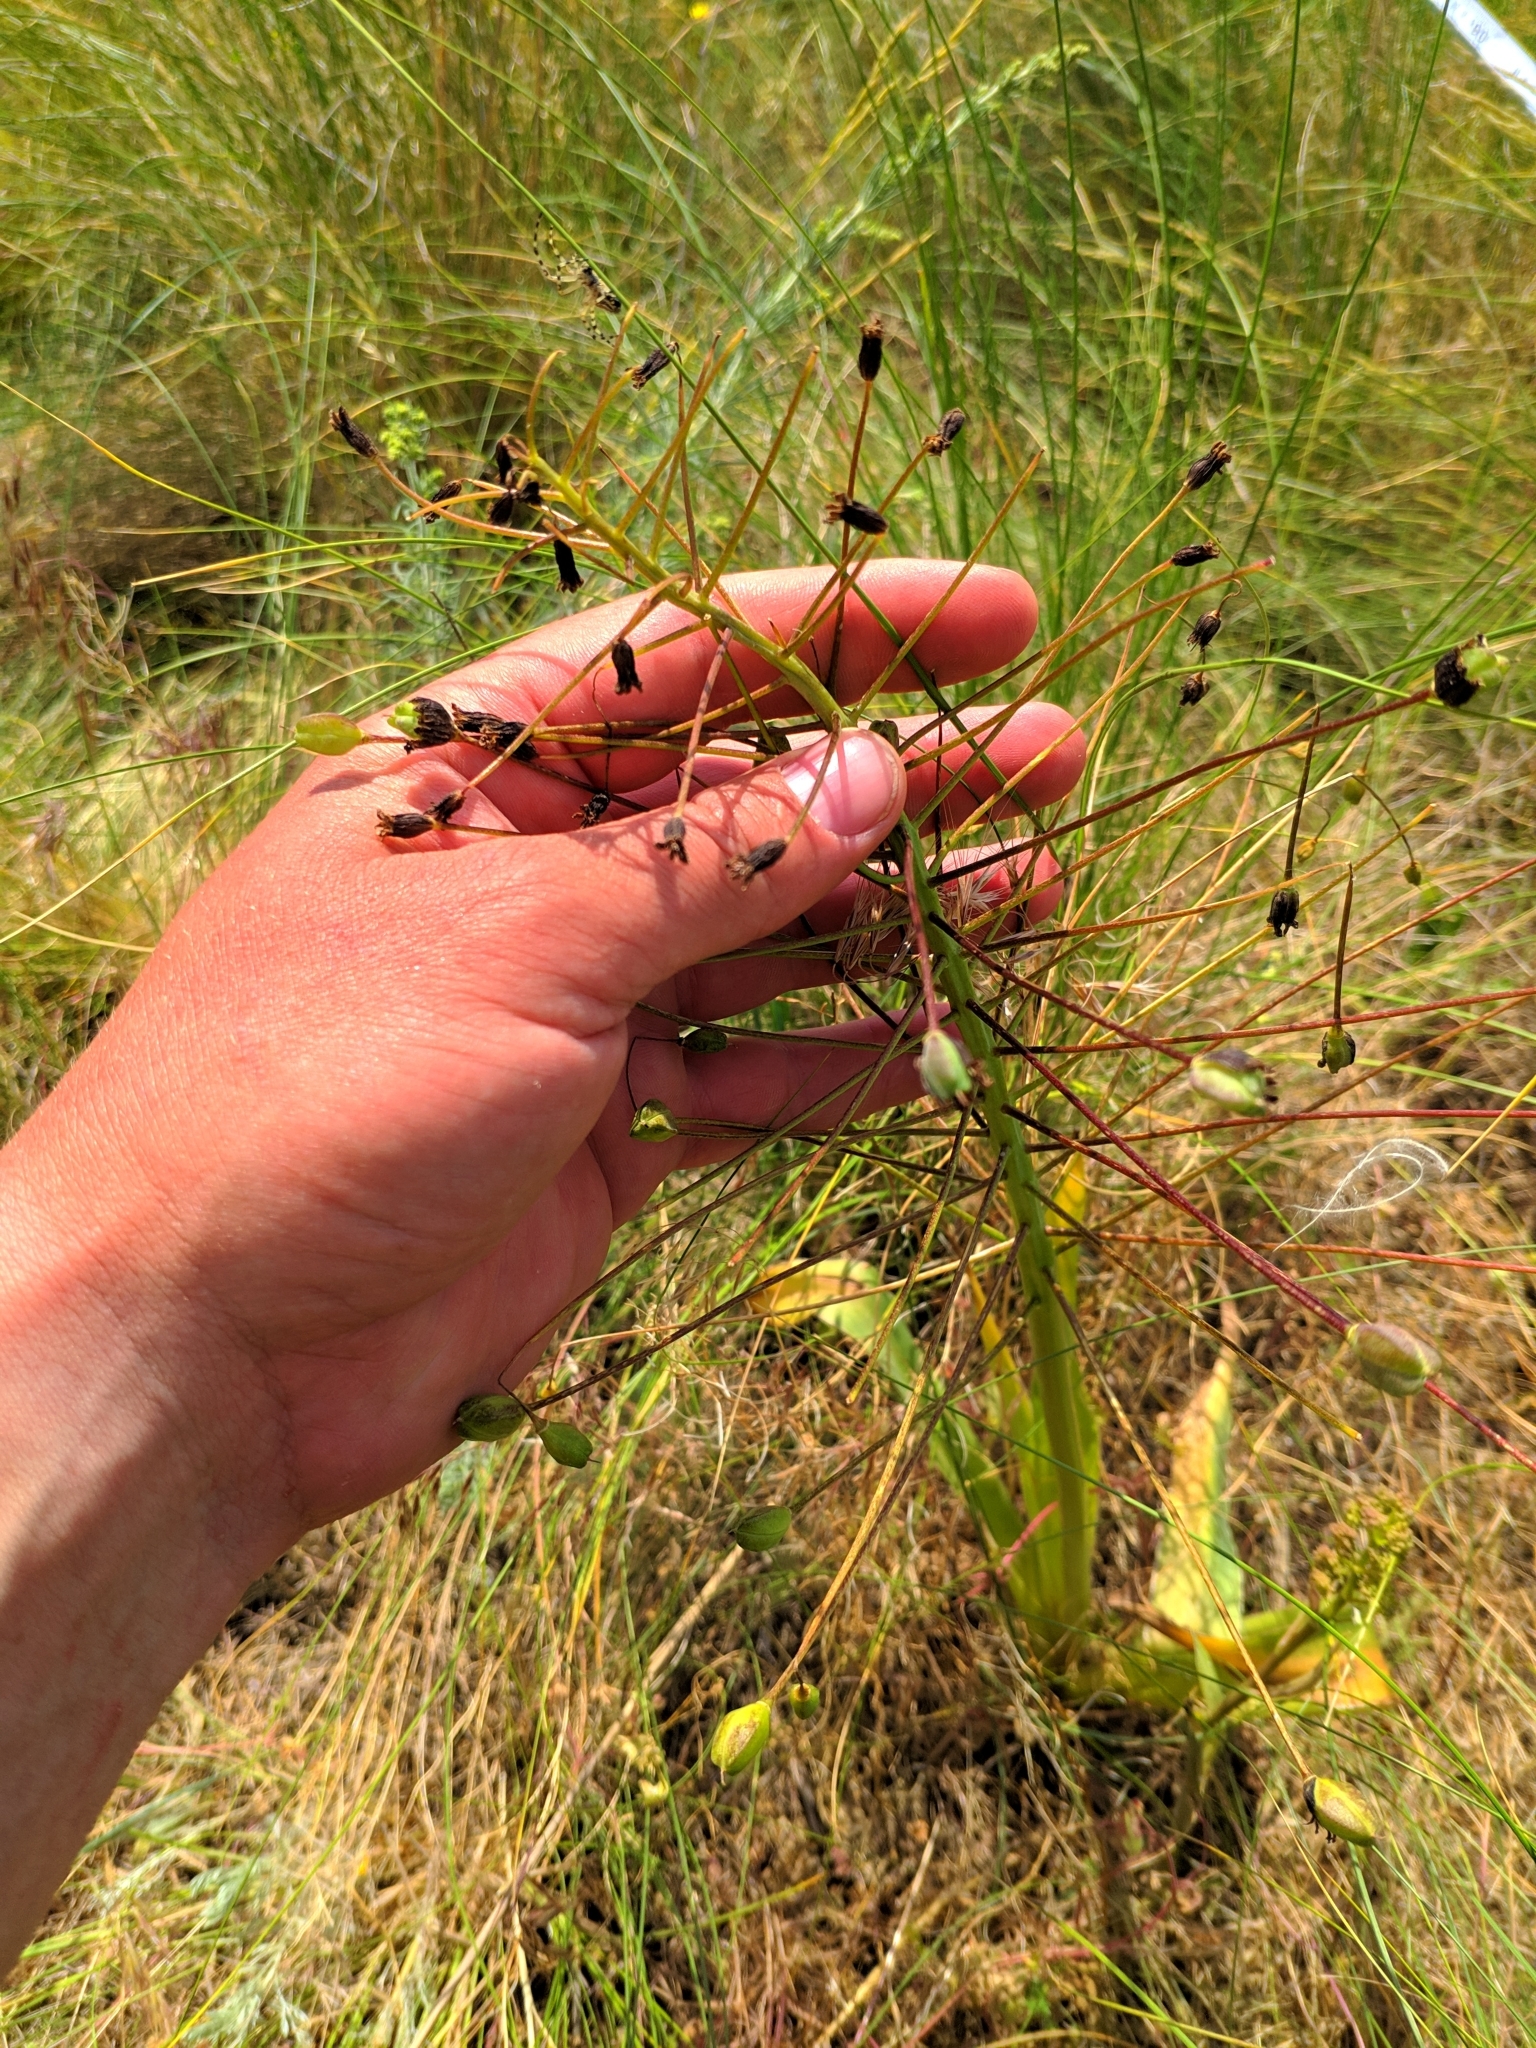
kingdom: Plantae
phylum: Tracheophyta
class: Liliopsida
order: Asparagales
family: Asparagaceae
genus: Bellevalia
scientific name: Bellevalia speciosa
